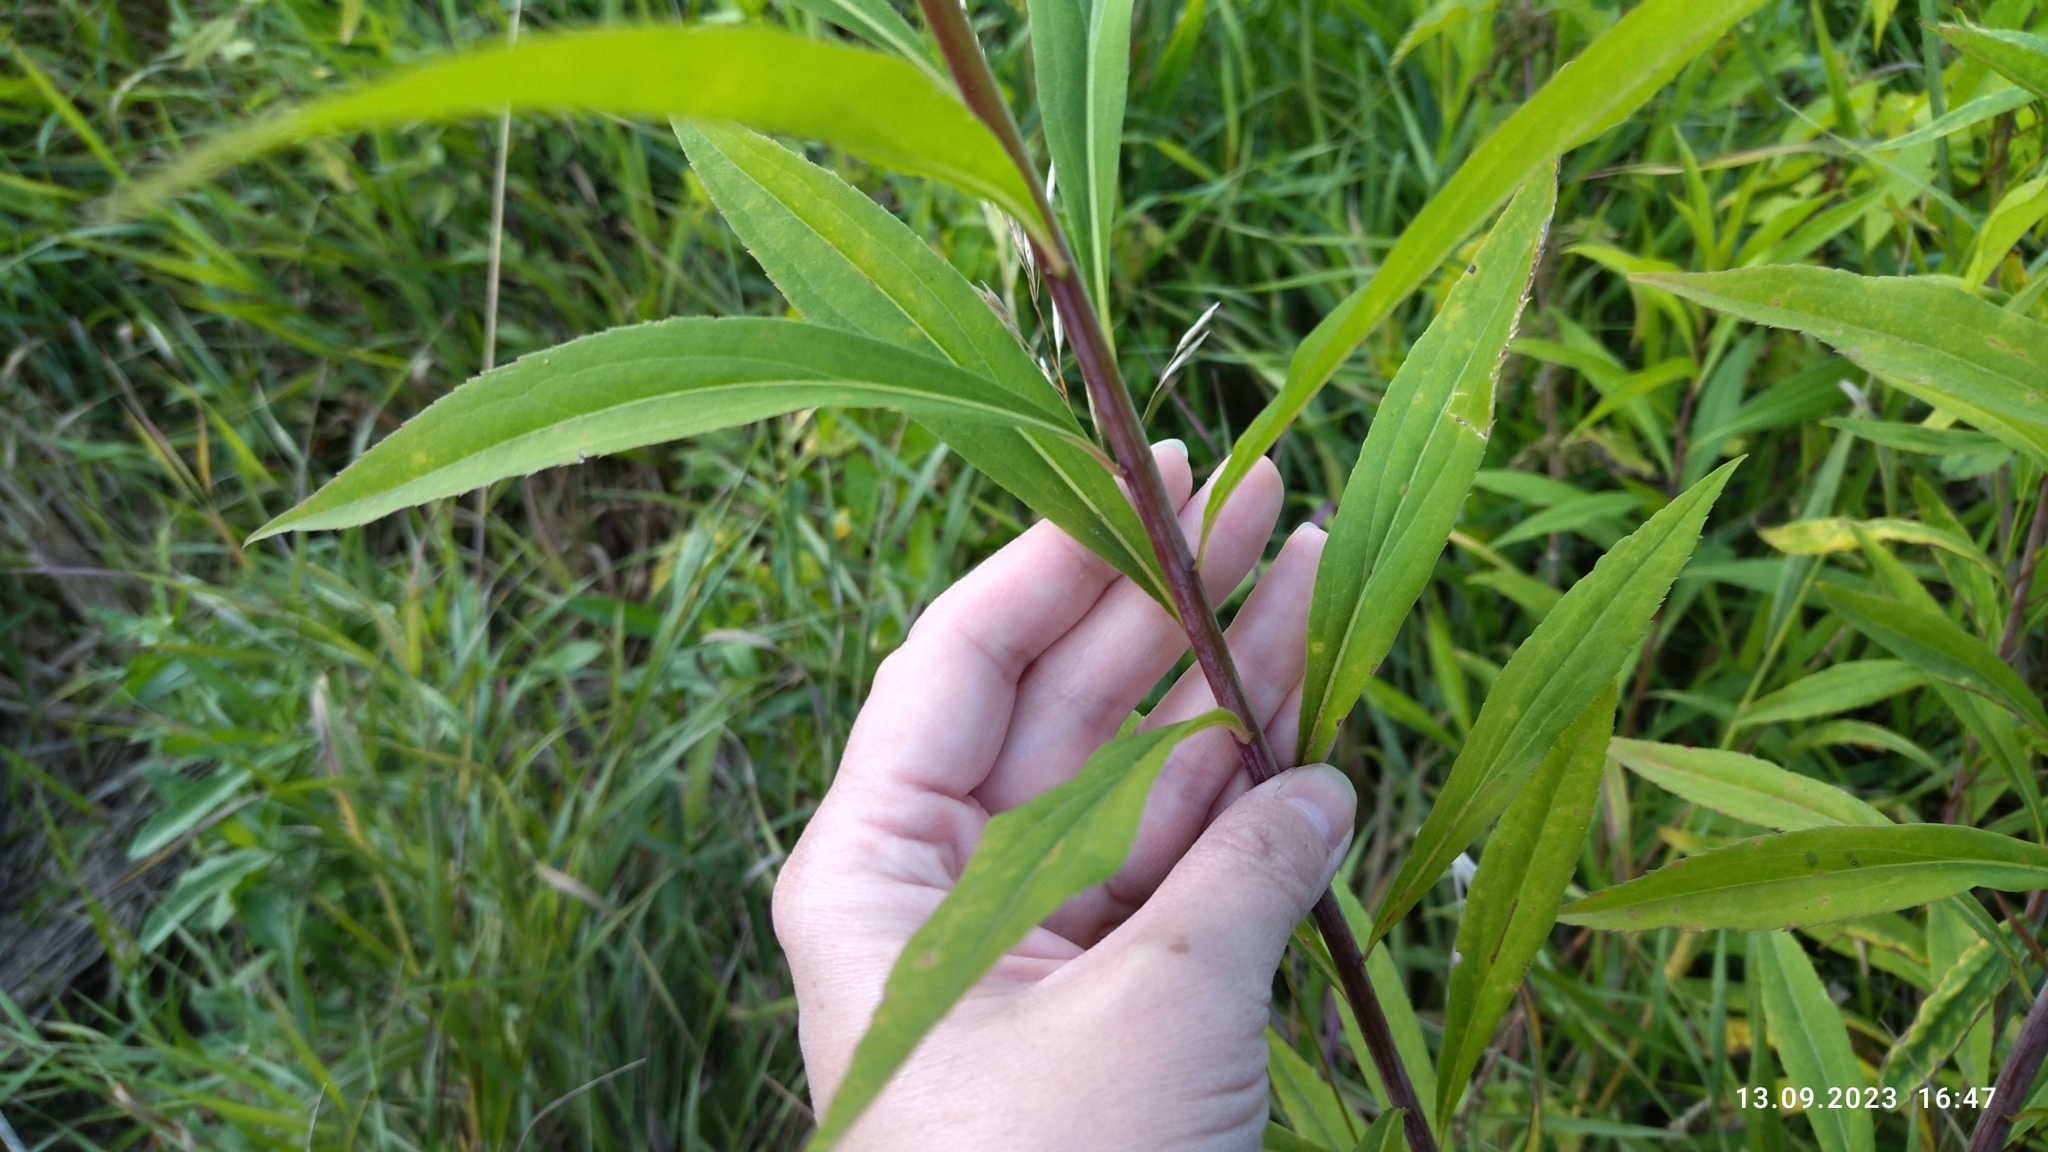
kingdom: Plantae
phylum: Tracheophyta
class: Magnoliopsida
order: Asterales
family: Asteraceae
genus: Solidago
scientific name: Solidago gigantea
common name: Giant goldenrod
